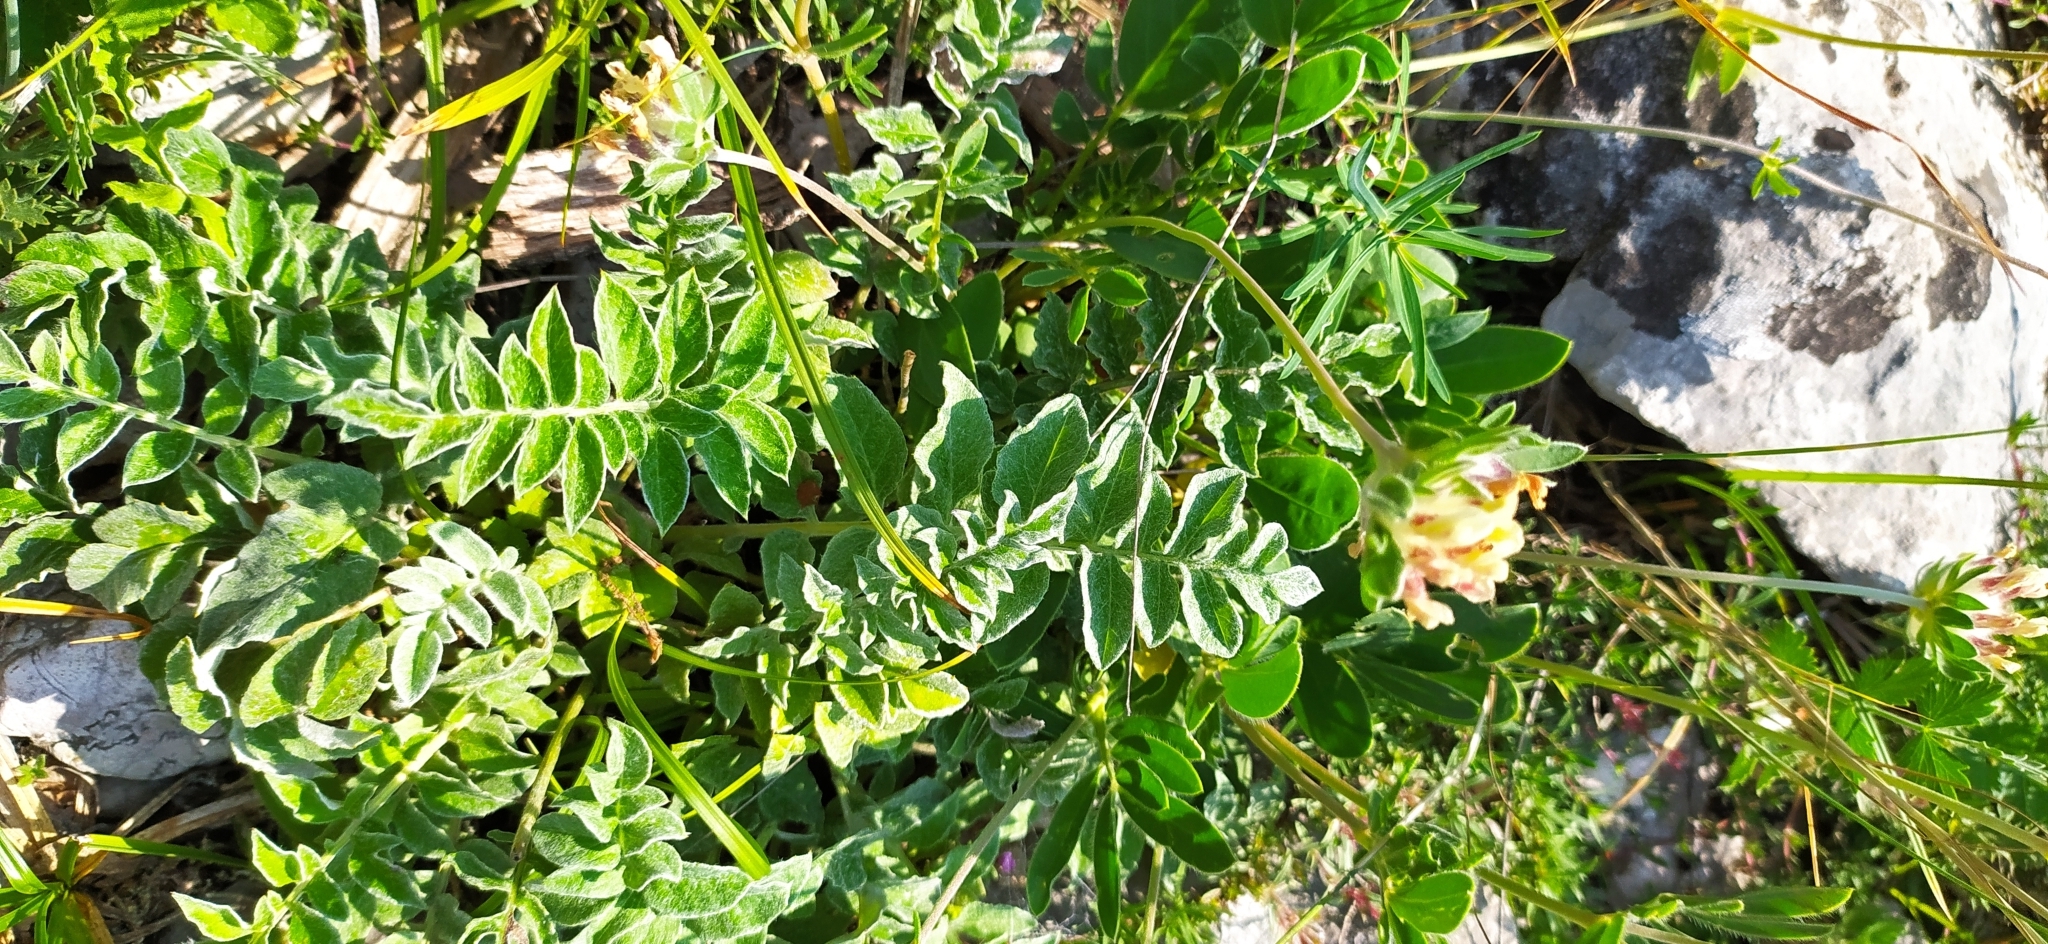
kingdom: Plantae
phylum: Tracheophyta
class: Magnoliopsida
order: Fabales
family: Fabaceae
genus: Anthyllis
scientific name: Anthyllis vulneraria
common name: Kidney vetch
